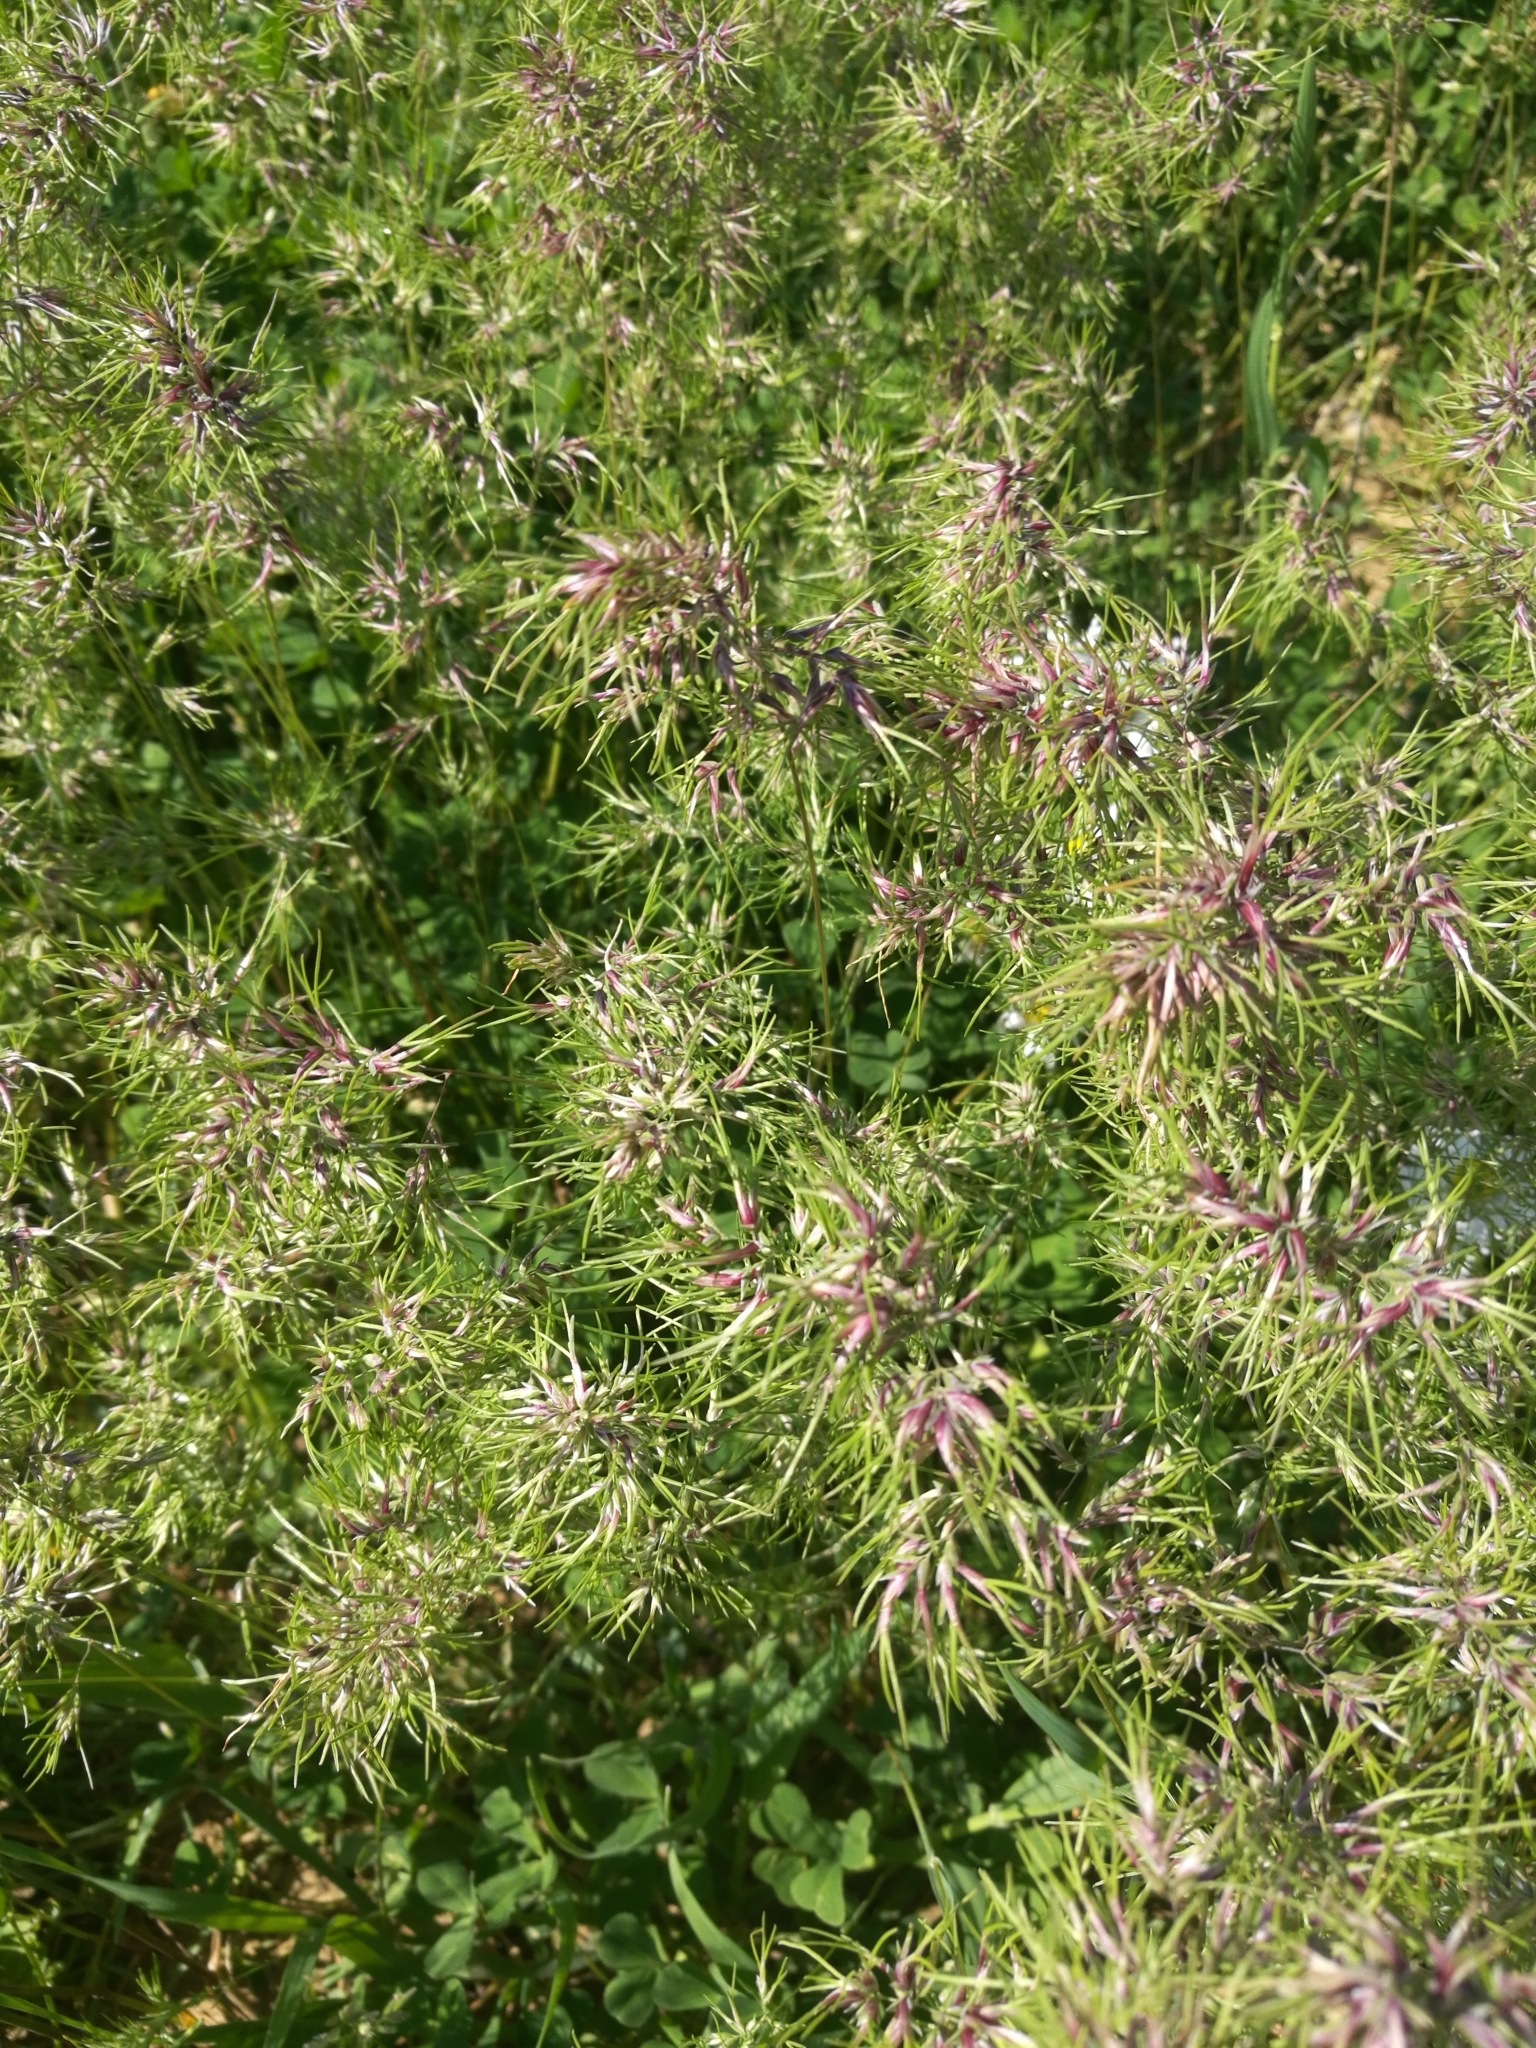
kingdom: Plantae
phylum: Tracheophyta
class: Liliopsida
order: Poales
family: Poaceae
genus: Poa
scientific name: Poa bulbosa
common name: Bulbous bluegrass
